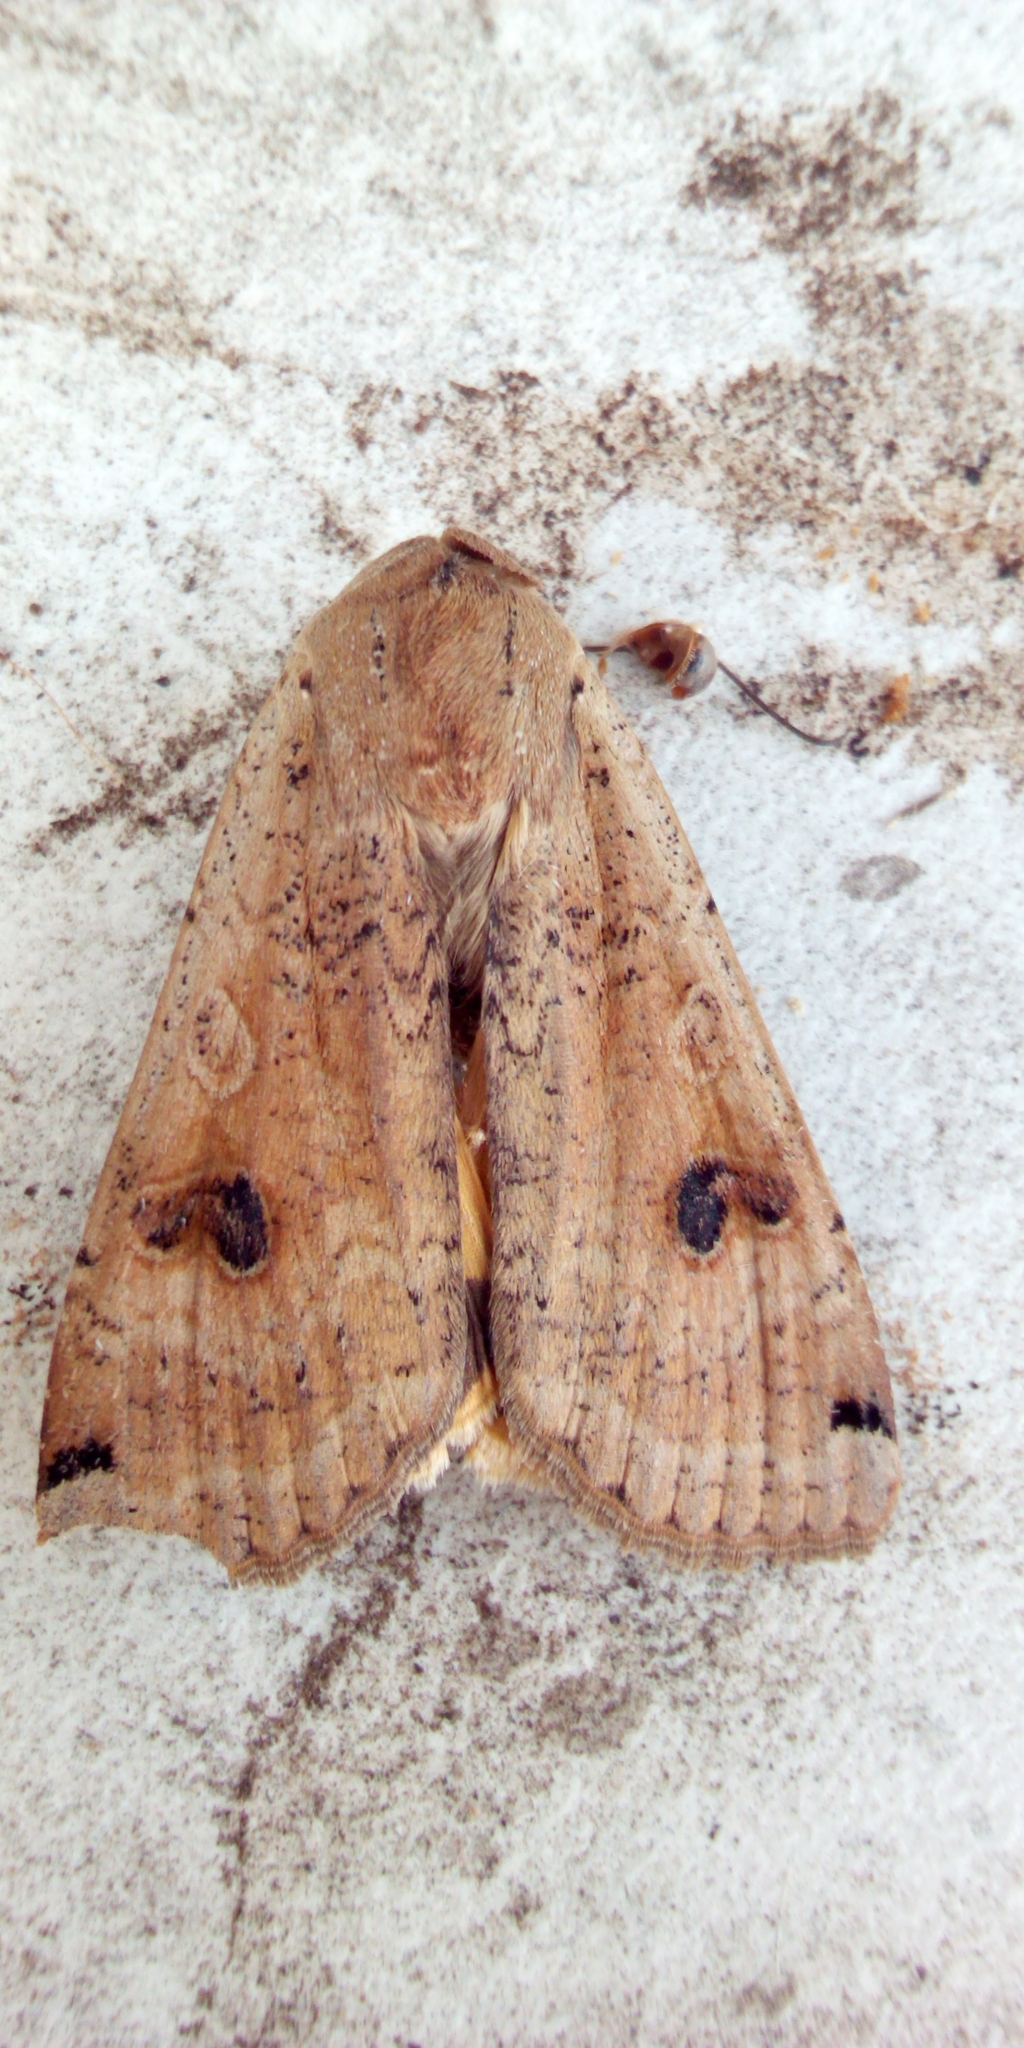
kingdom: Animalia
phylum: Arthropoda
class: Insecta
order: Lepidoptera
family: Noctuidae
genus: Noctua
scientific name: Noctua pronuba
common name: Large yellow underwing
